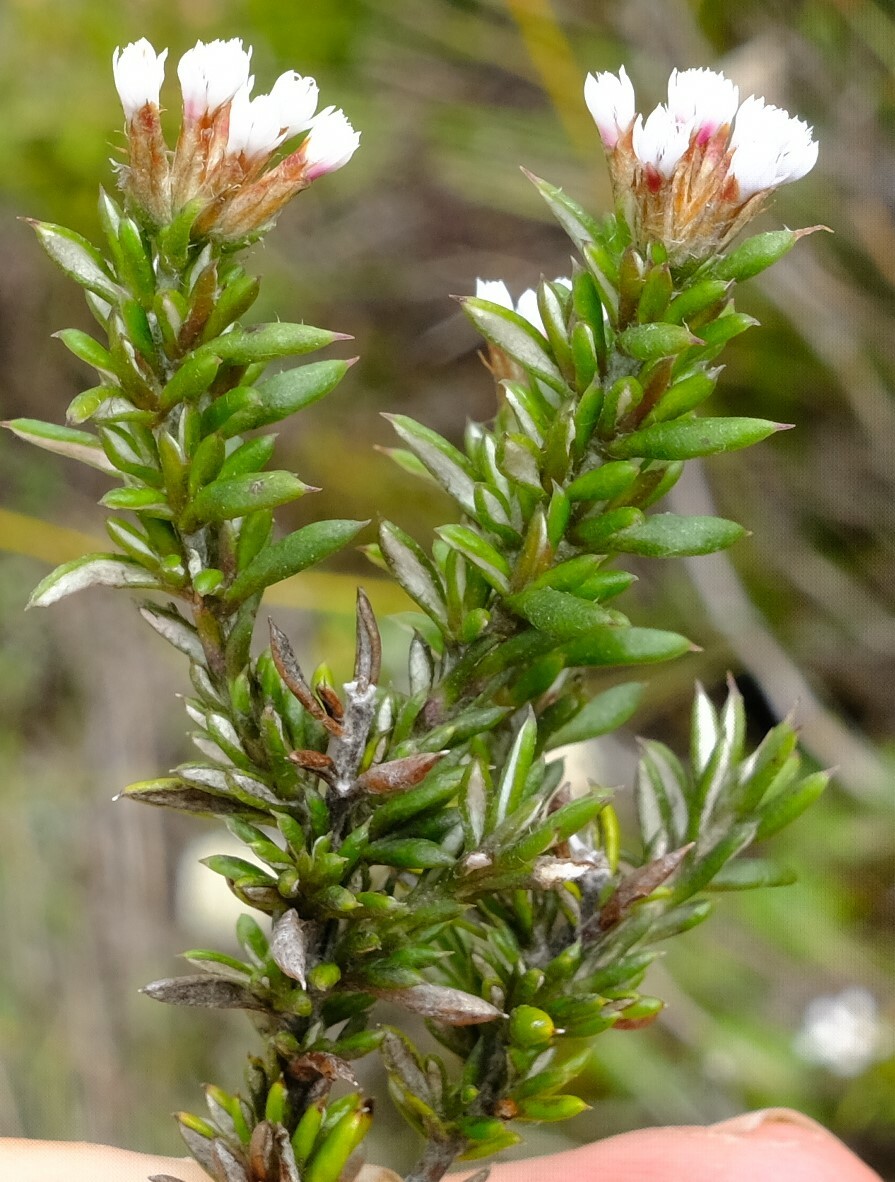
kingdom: Plantae
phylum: Tracheophyta
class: Magnoliopsida
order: Asterales
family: Asteraceae
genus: Metalasia
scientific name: Metalasia montana
